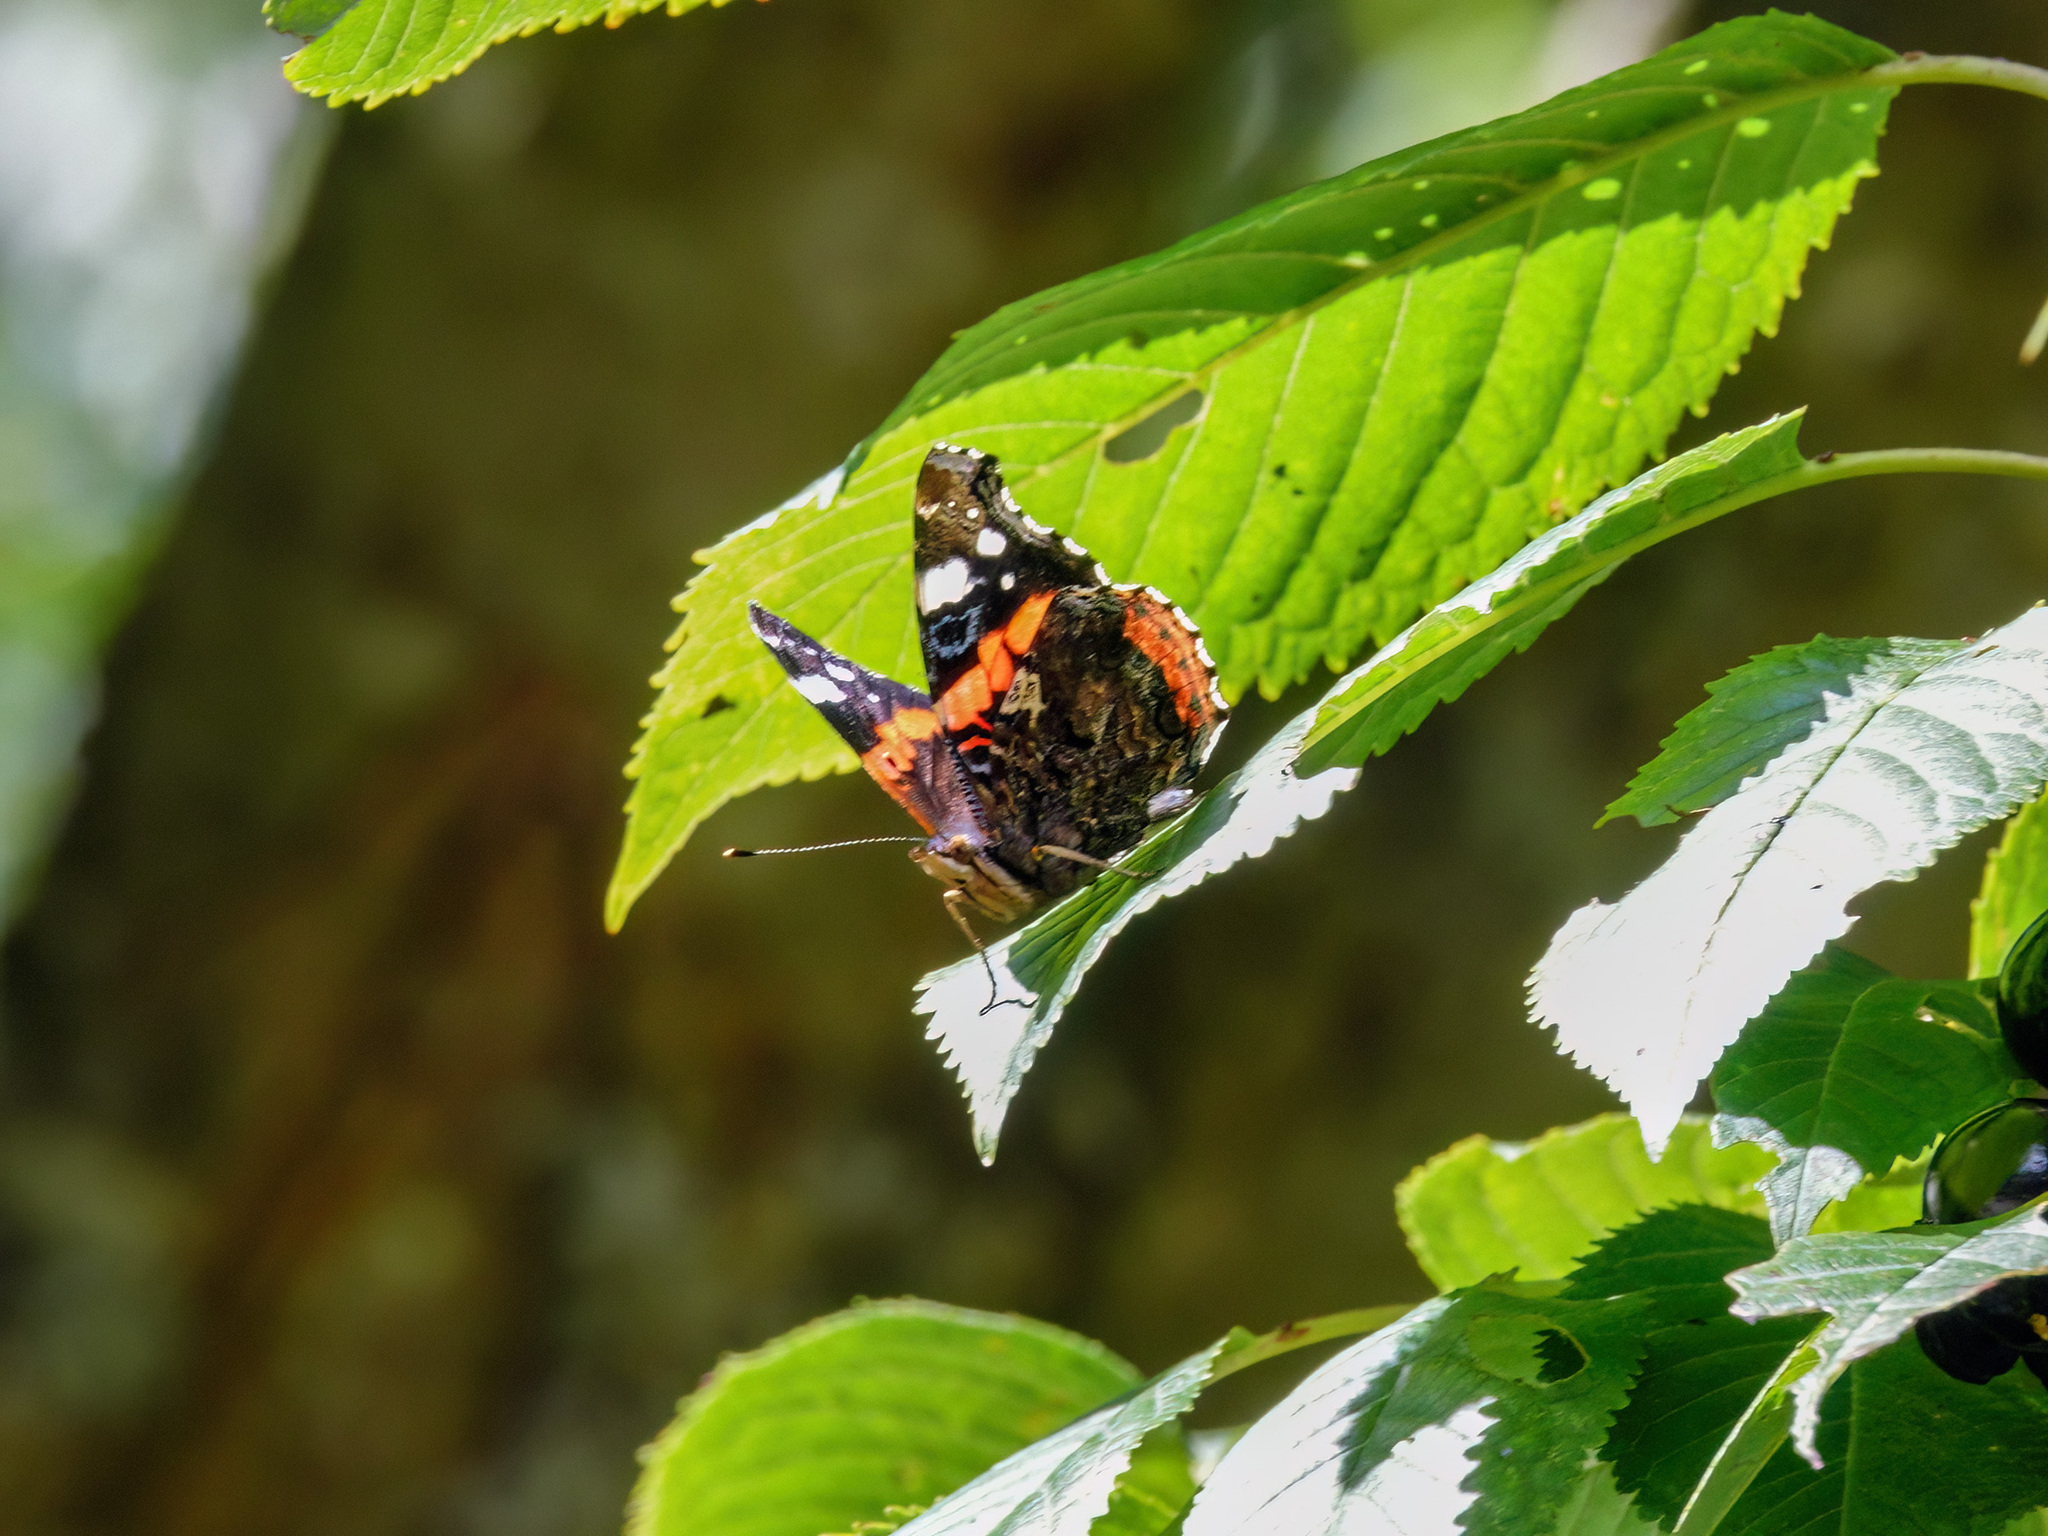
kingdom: Animalia
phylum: Arthropoda
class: Insecta
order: Lepidoptera
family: Nymphalidae
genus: Vanessa
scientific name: Vanessa atalanta
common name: Red admiral
